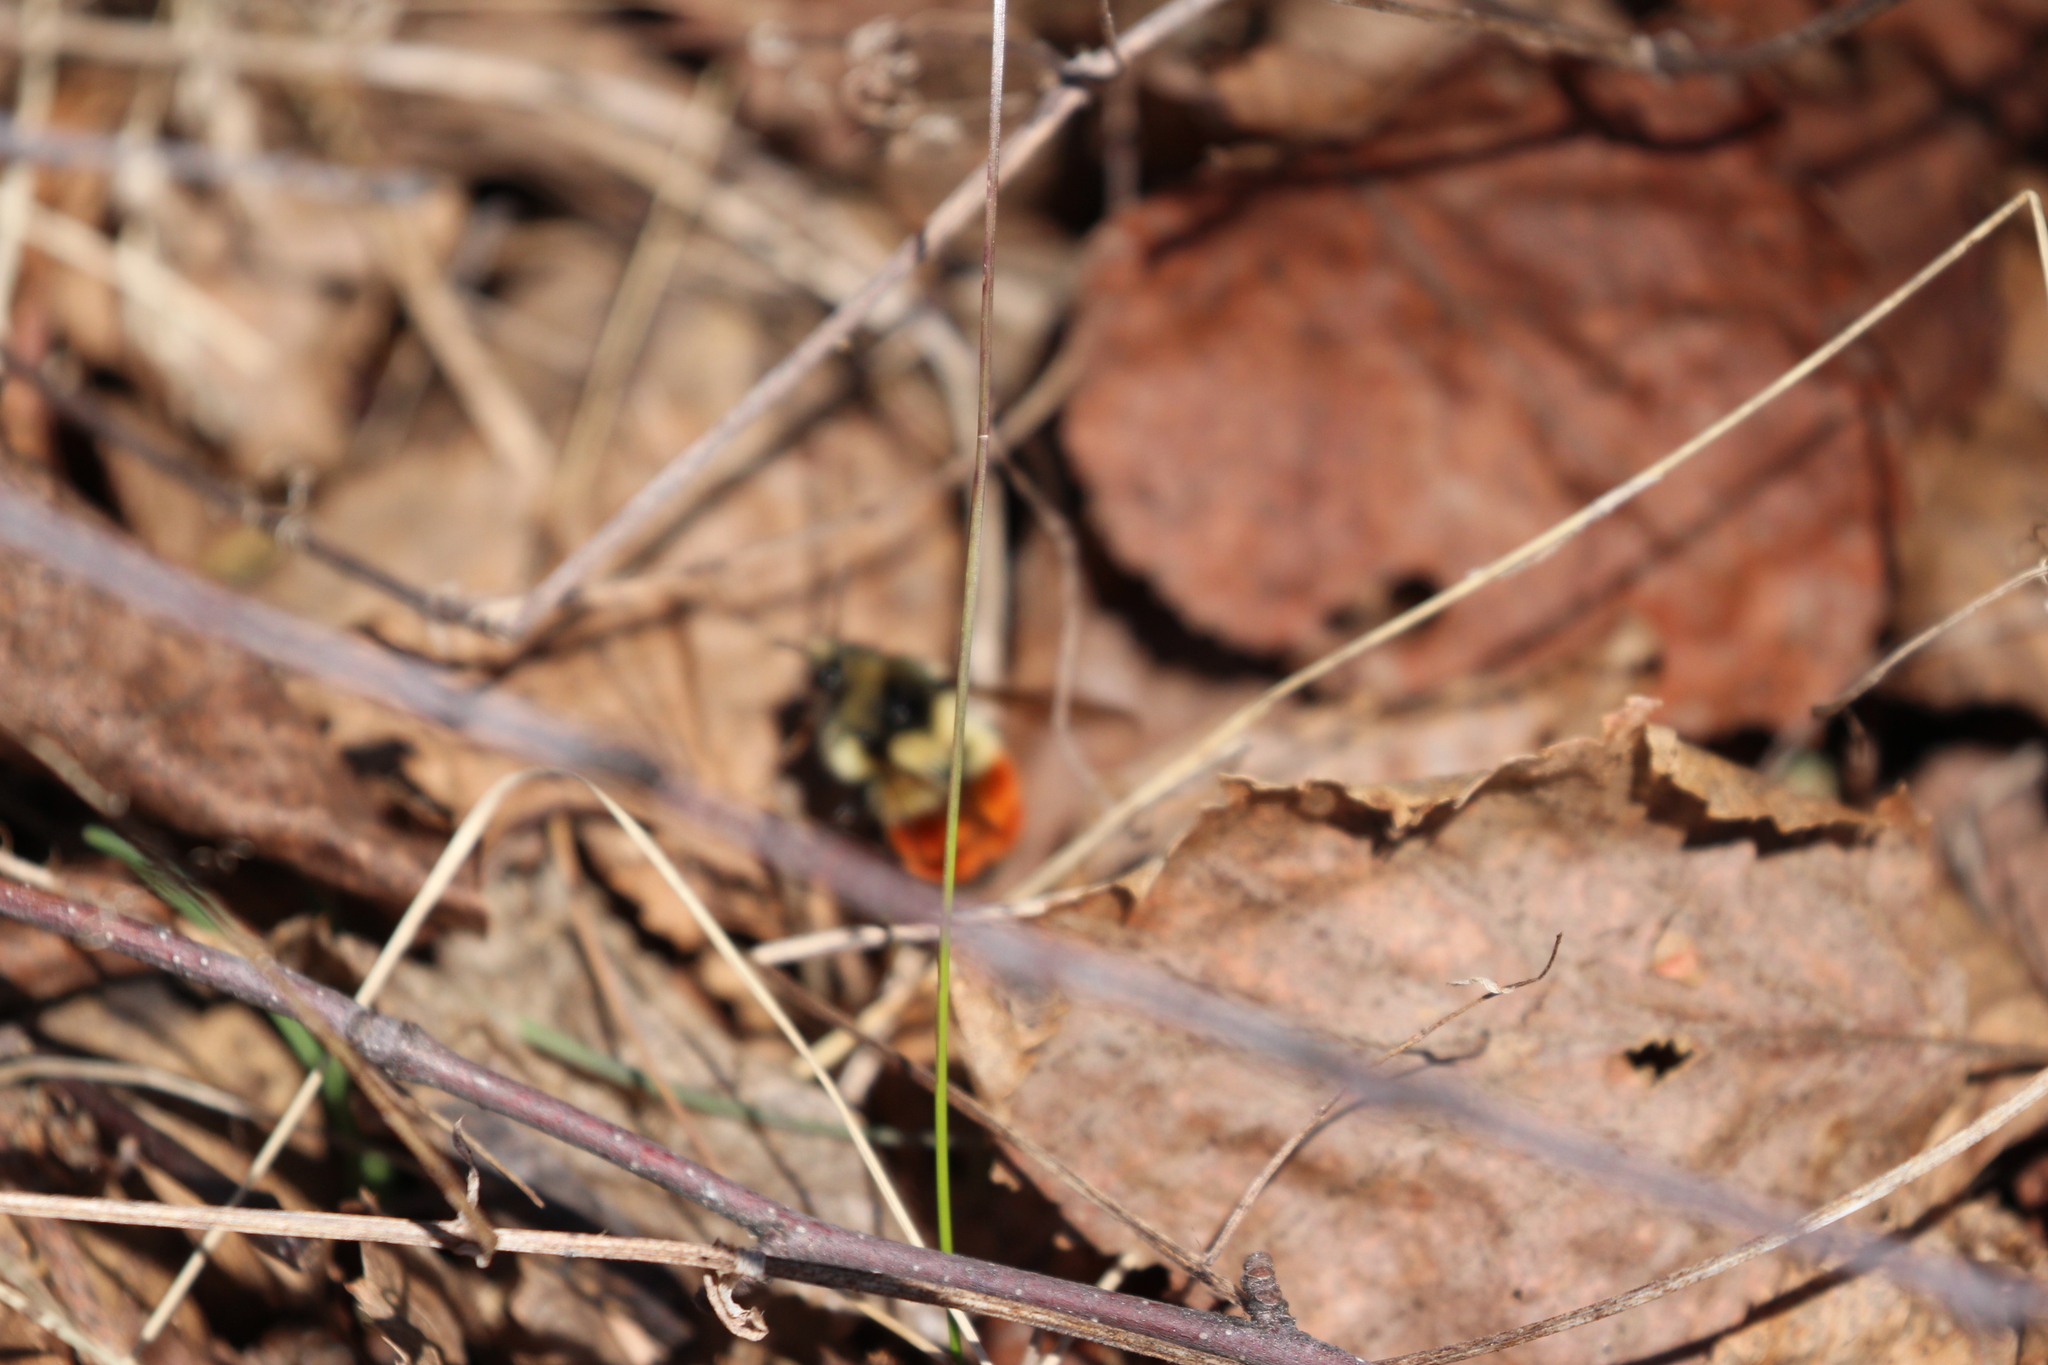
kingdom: Animalia
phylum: Arthropoda
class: Insecta
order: Hymenoptera
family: Apidae
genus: Bombus
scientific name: Bombus melanopygus
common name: Black tail bumble bee
